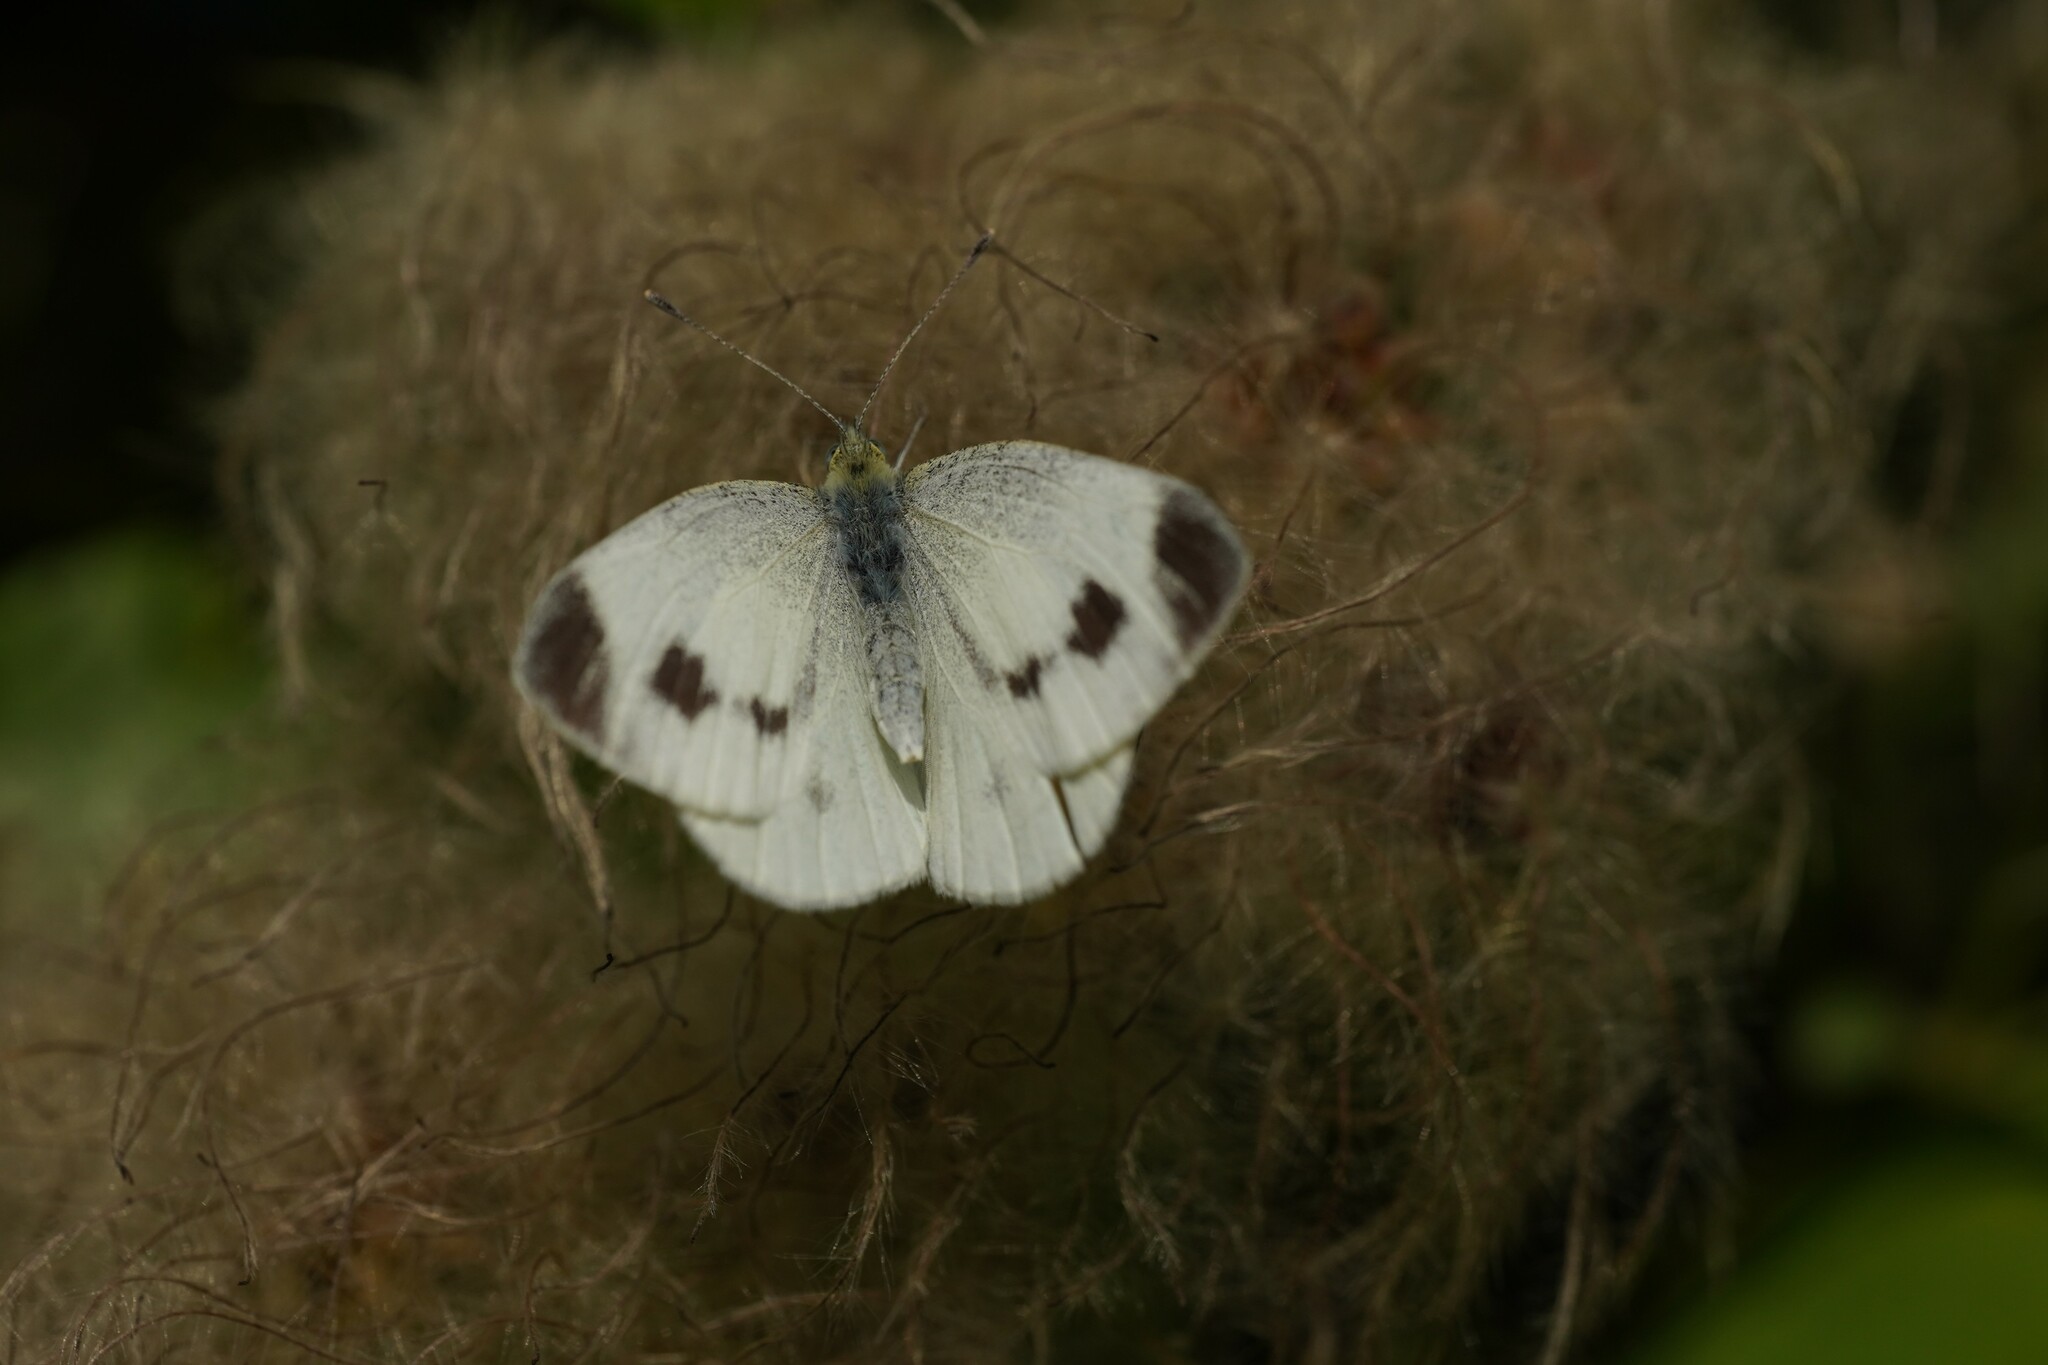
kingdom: Animalia
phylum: Arthropoda
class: Insecta
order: Lepidoptera
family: Pieridae
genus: Pieris
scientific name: Pieris mannii
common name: Southern small white
